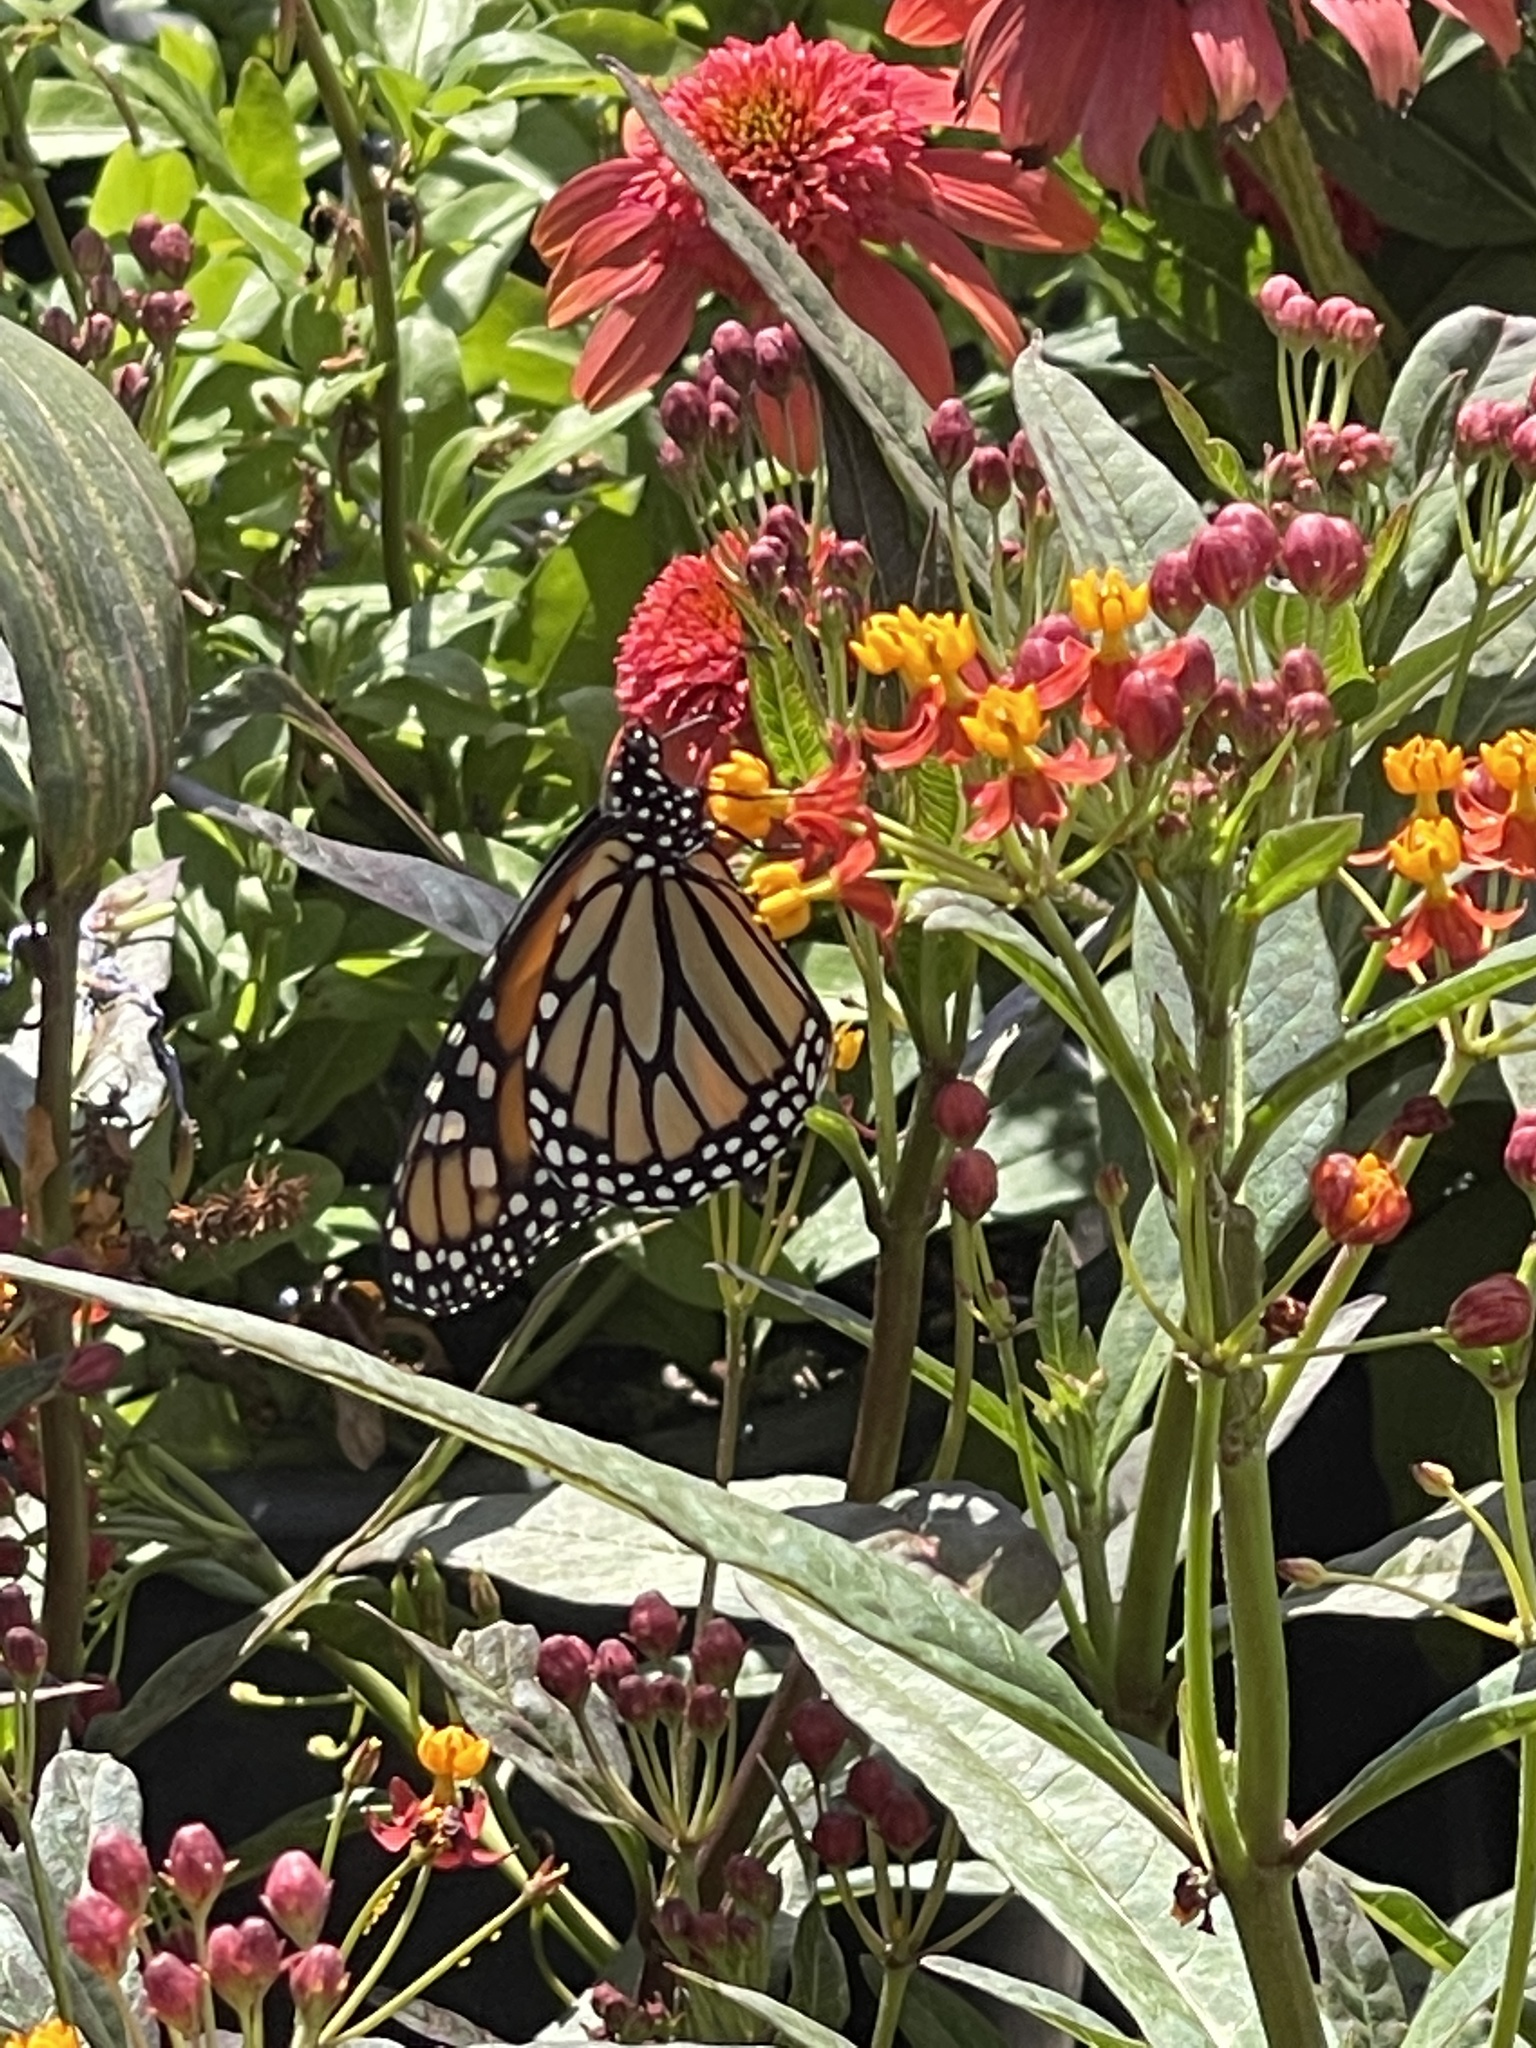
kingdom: Animalia
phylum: Arthropoda
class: Insecta
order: Lepidoptera
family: Nymphalidae
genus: Danaus
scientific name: Danaus plexippus
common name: Monarch
